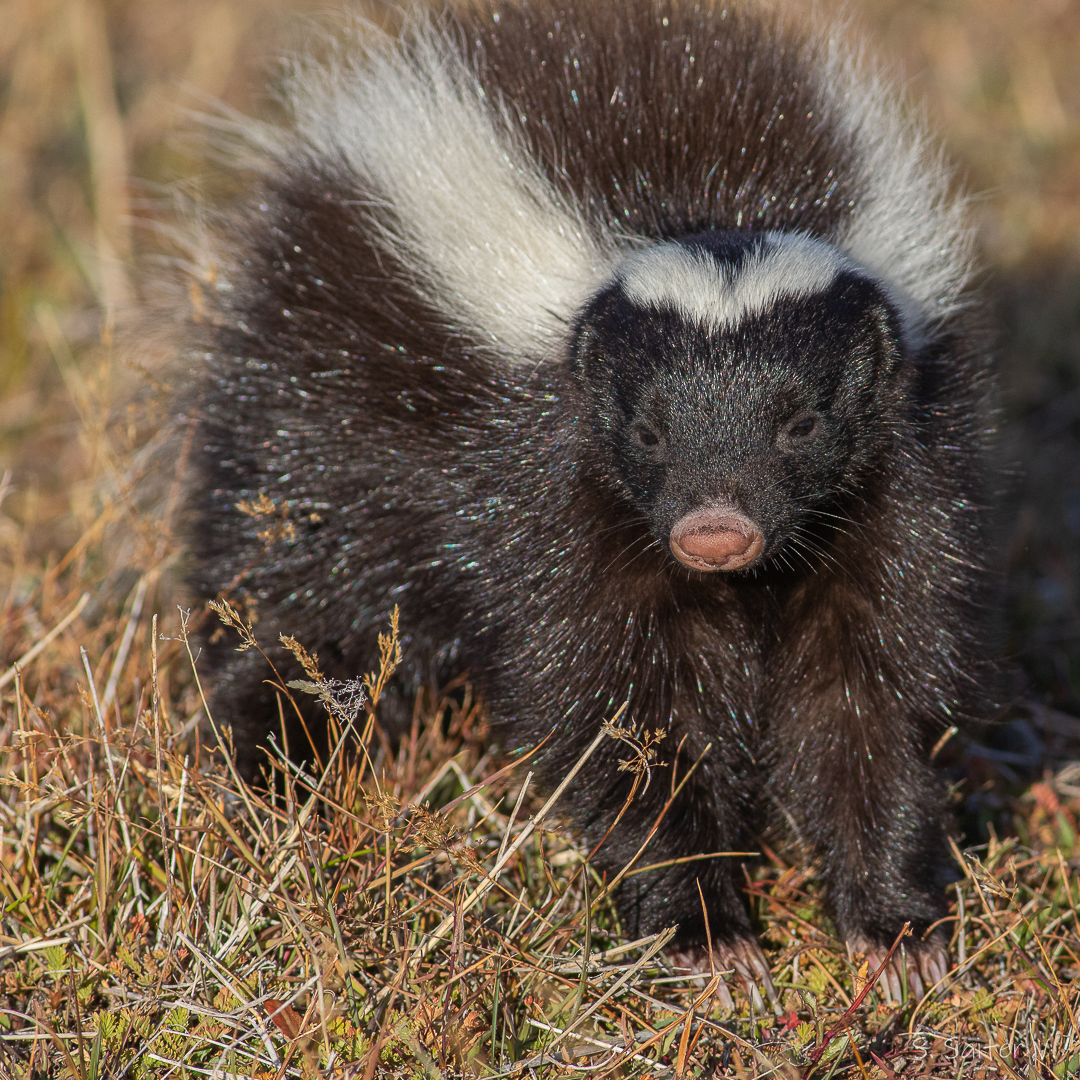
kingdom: Animalia
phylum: Chordata
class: Mammalia
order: Carnivora
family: Mephitidae
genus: Conepatus
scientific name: Conepatus chinga
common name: Molina's hog-nosed skunk
